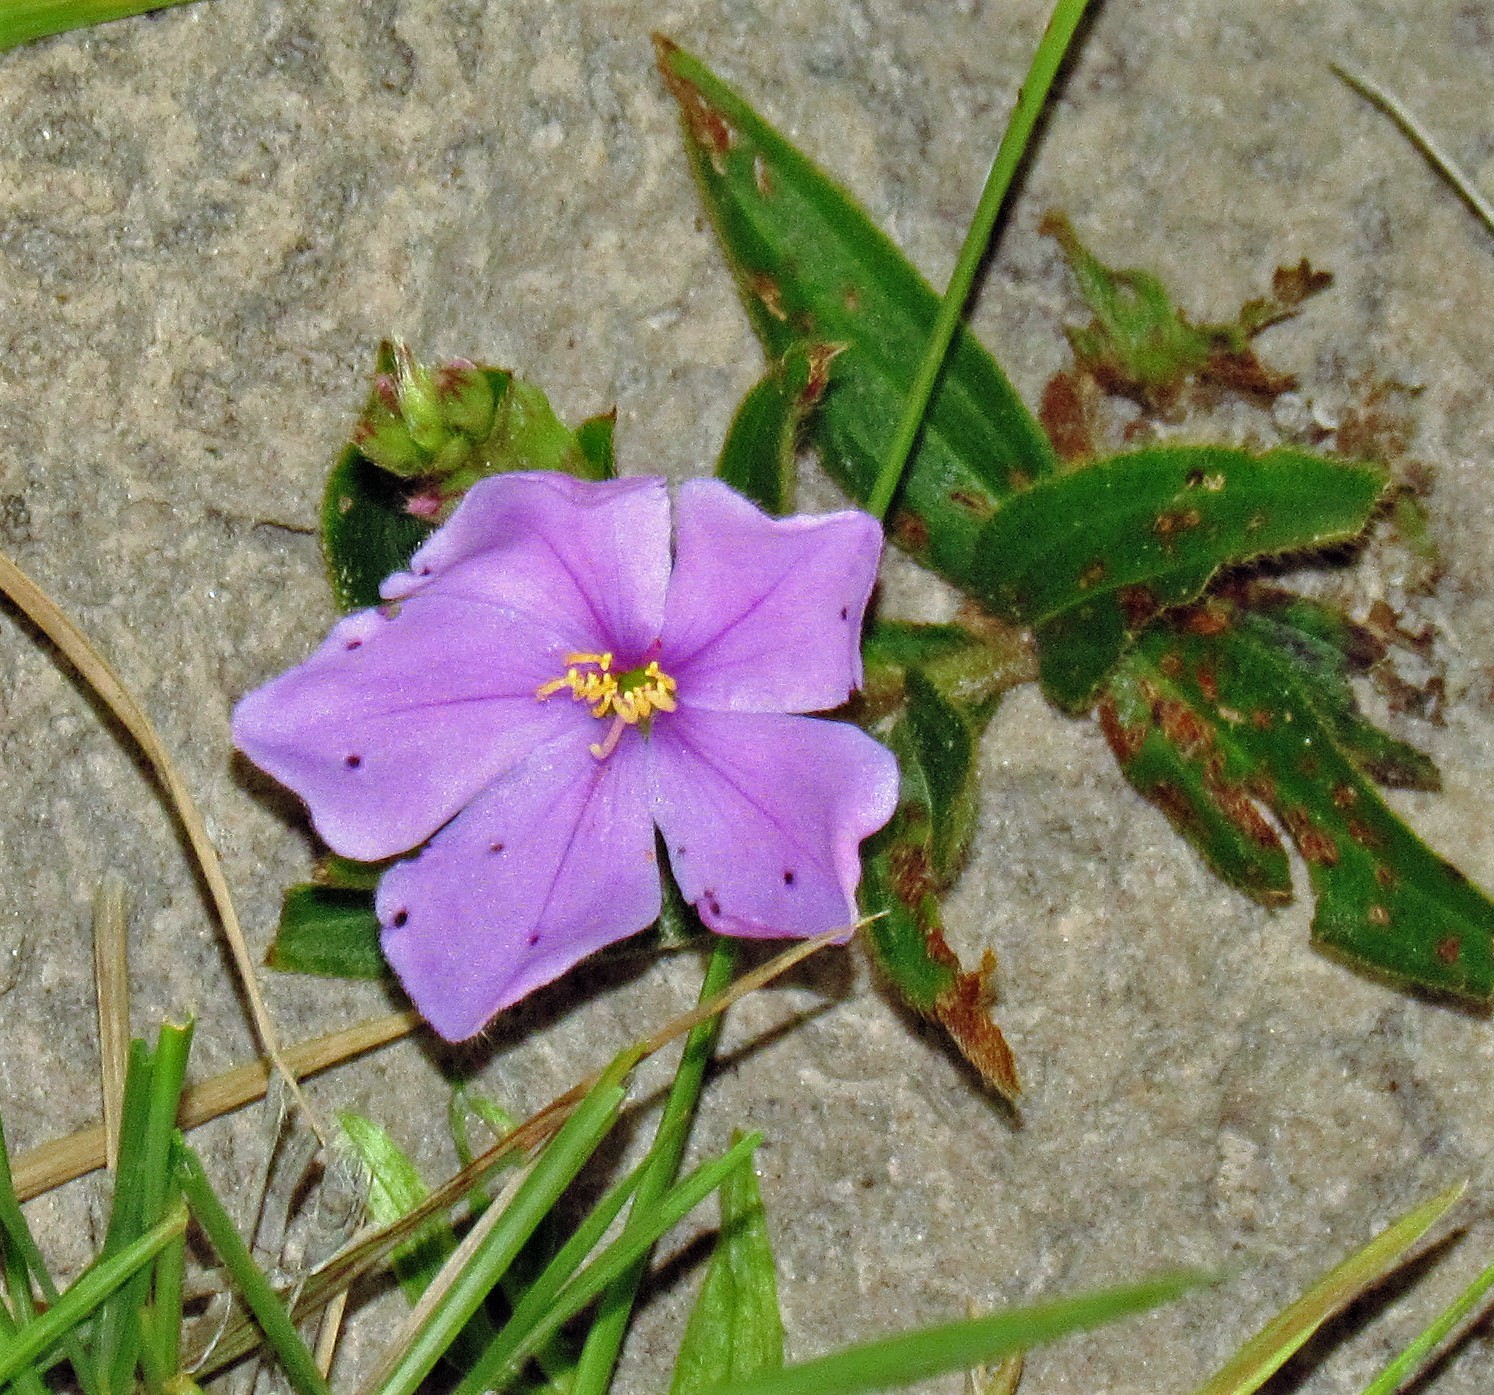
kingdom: Plantae
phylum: Tracheophyta
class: Magnoliopsida
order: Myrtales
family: Melastomataceae
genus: Chaetogastra
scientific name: Chaetogastra gracilis
